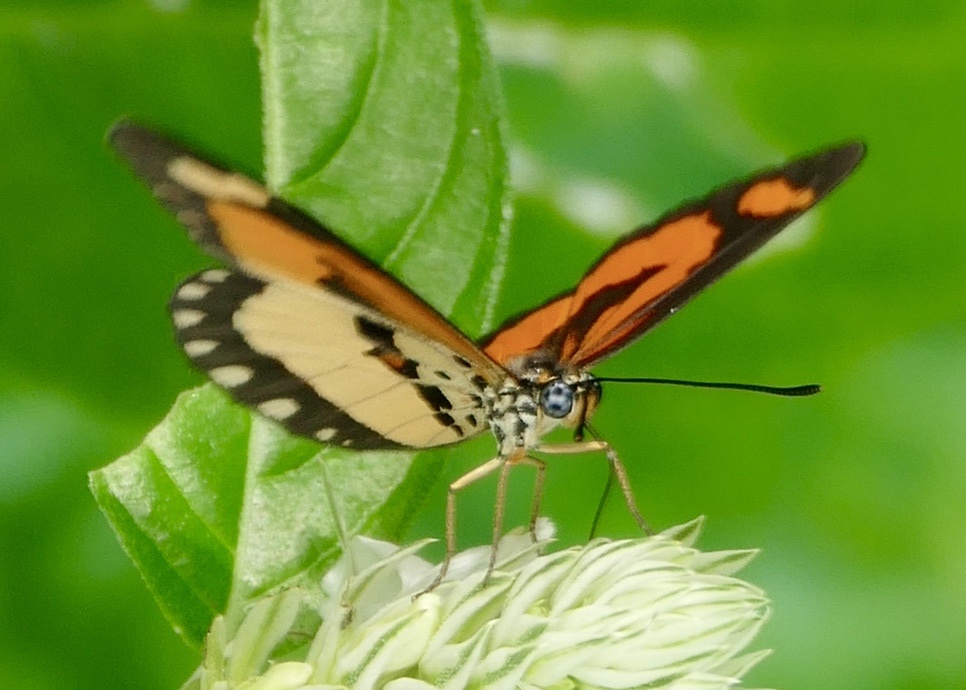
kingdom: Animalia
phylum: Arthropoda
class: Insecta
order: Lepidoptera
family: Nymphalidae
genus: Acraea
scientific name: Acraea Telchinia bonasia
